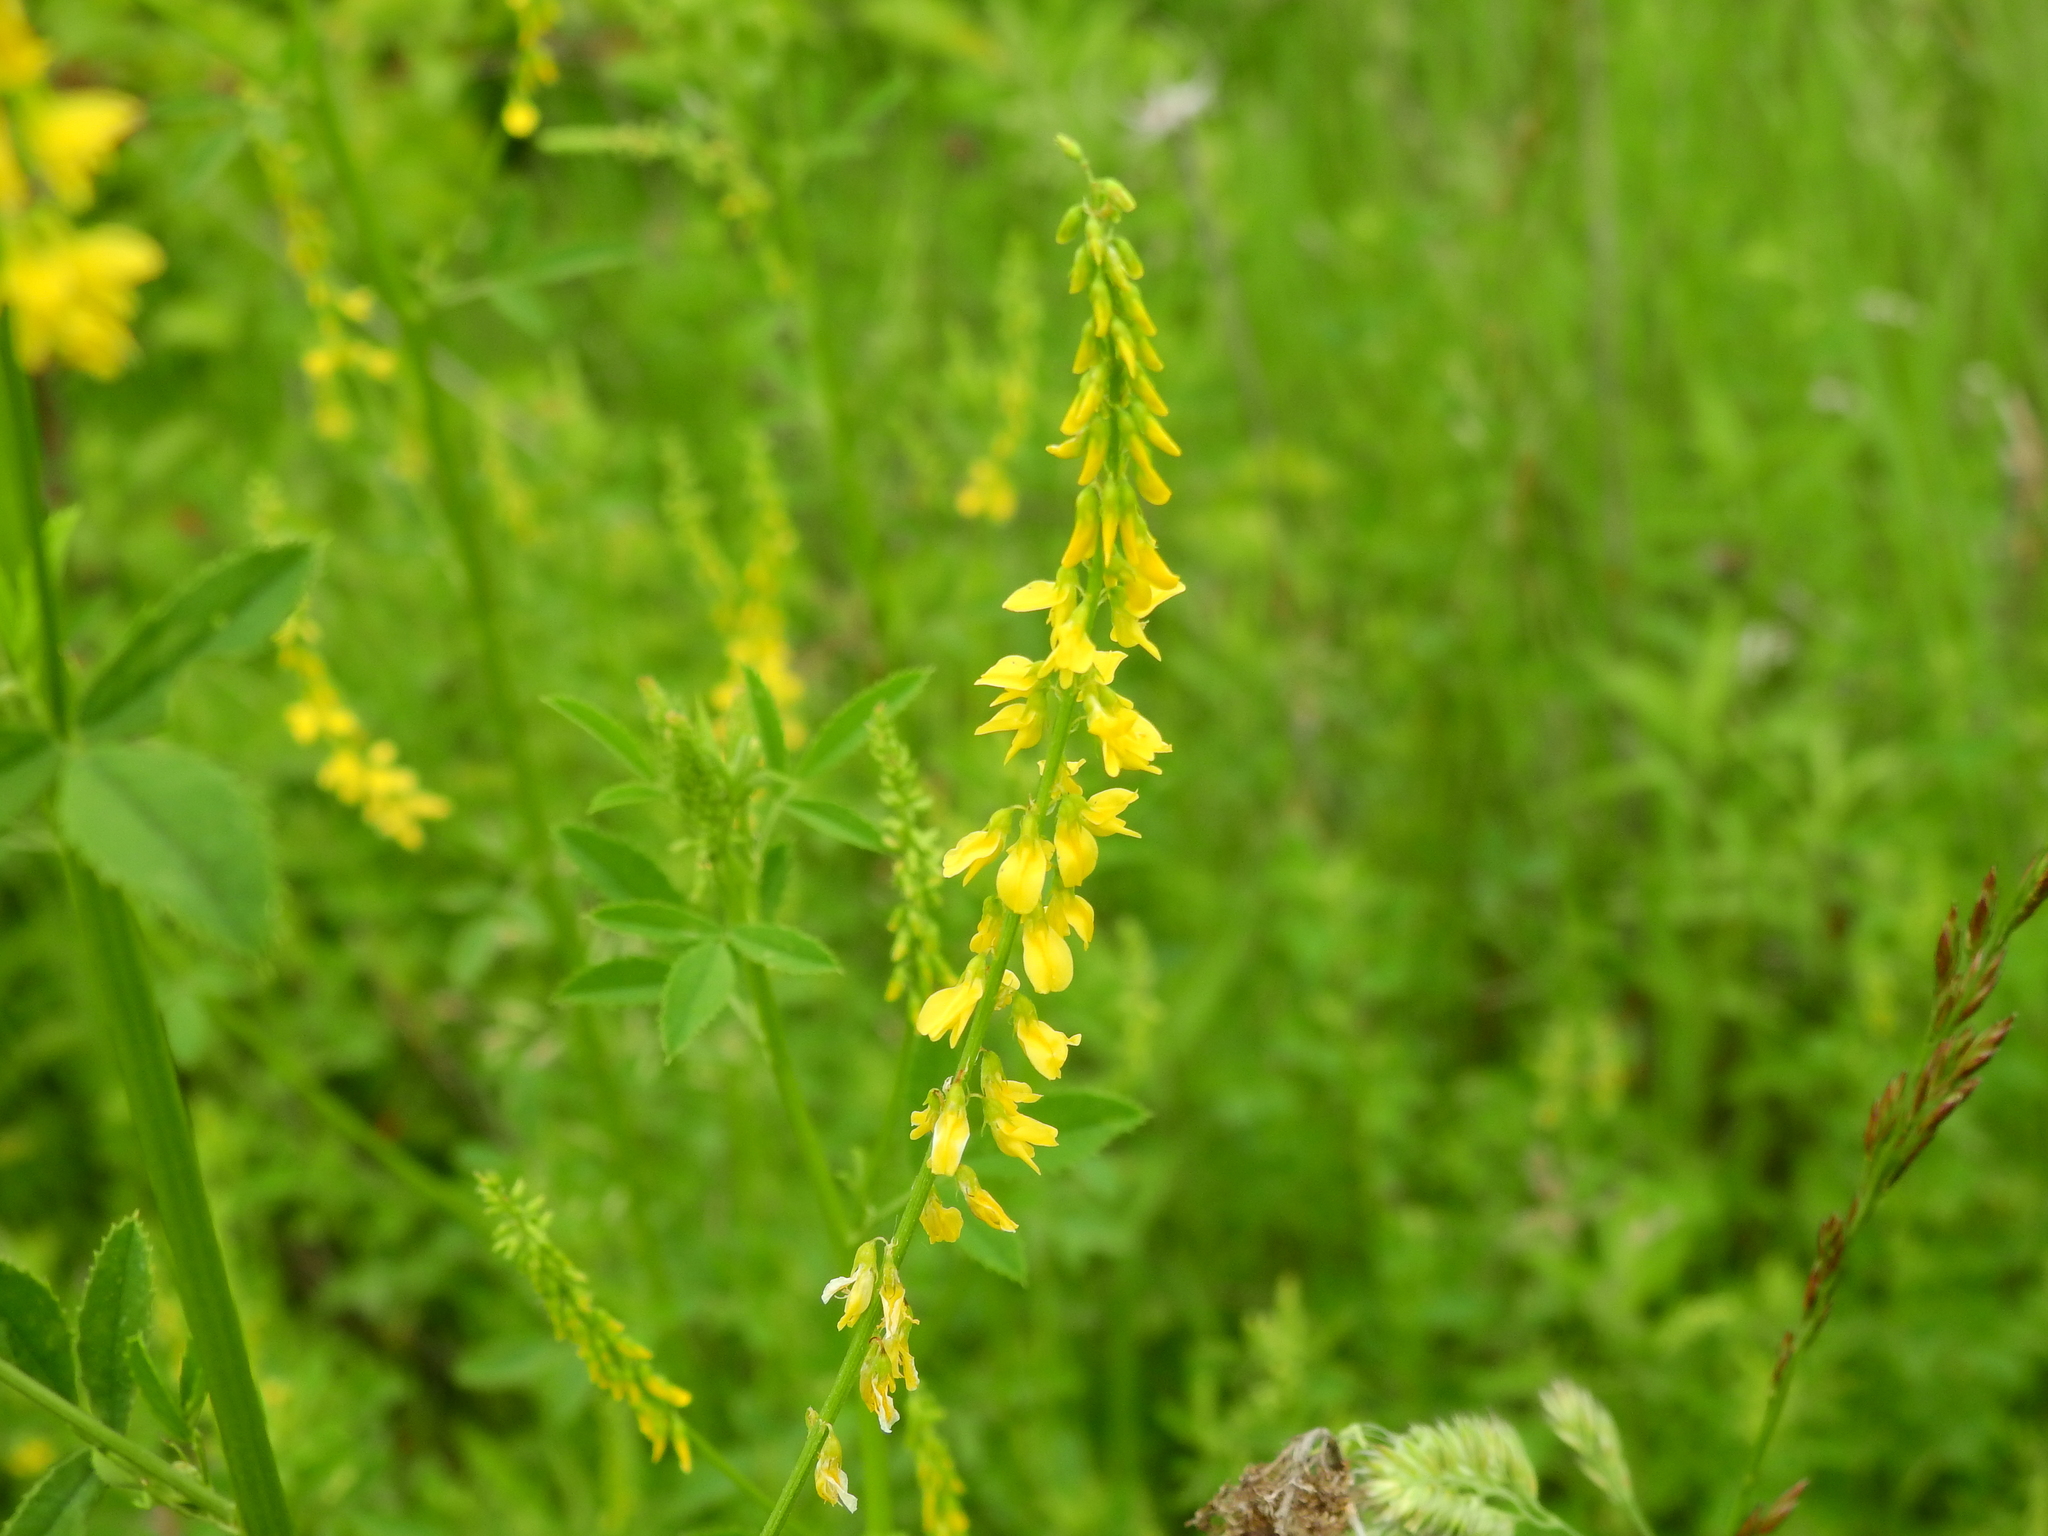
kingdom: Plantae
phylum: Tracheophyta
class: Magnoliopsida
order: Fabales
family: Fabaceae
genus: Melilotus
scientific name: Melilotus officinalis
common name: Sweetclover
